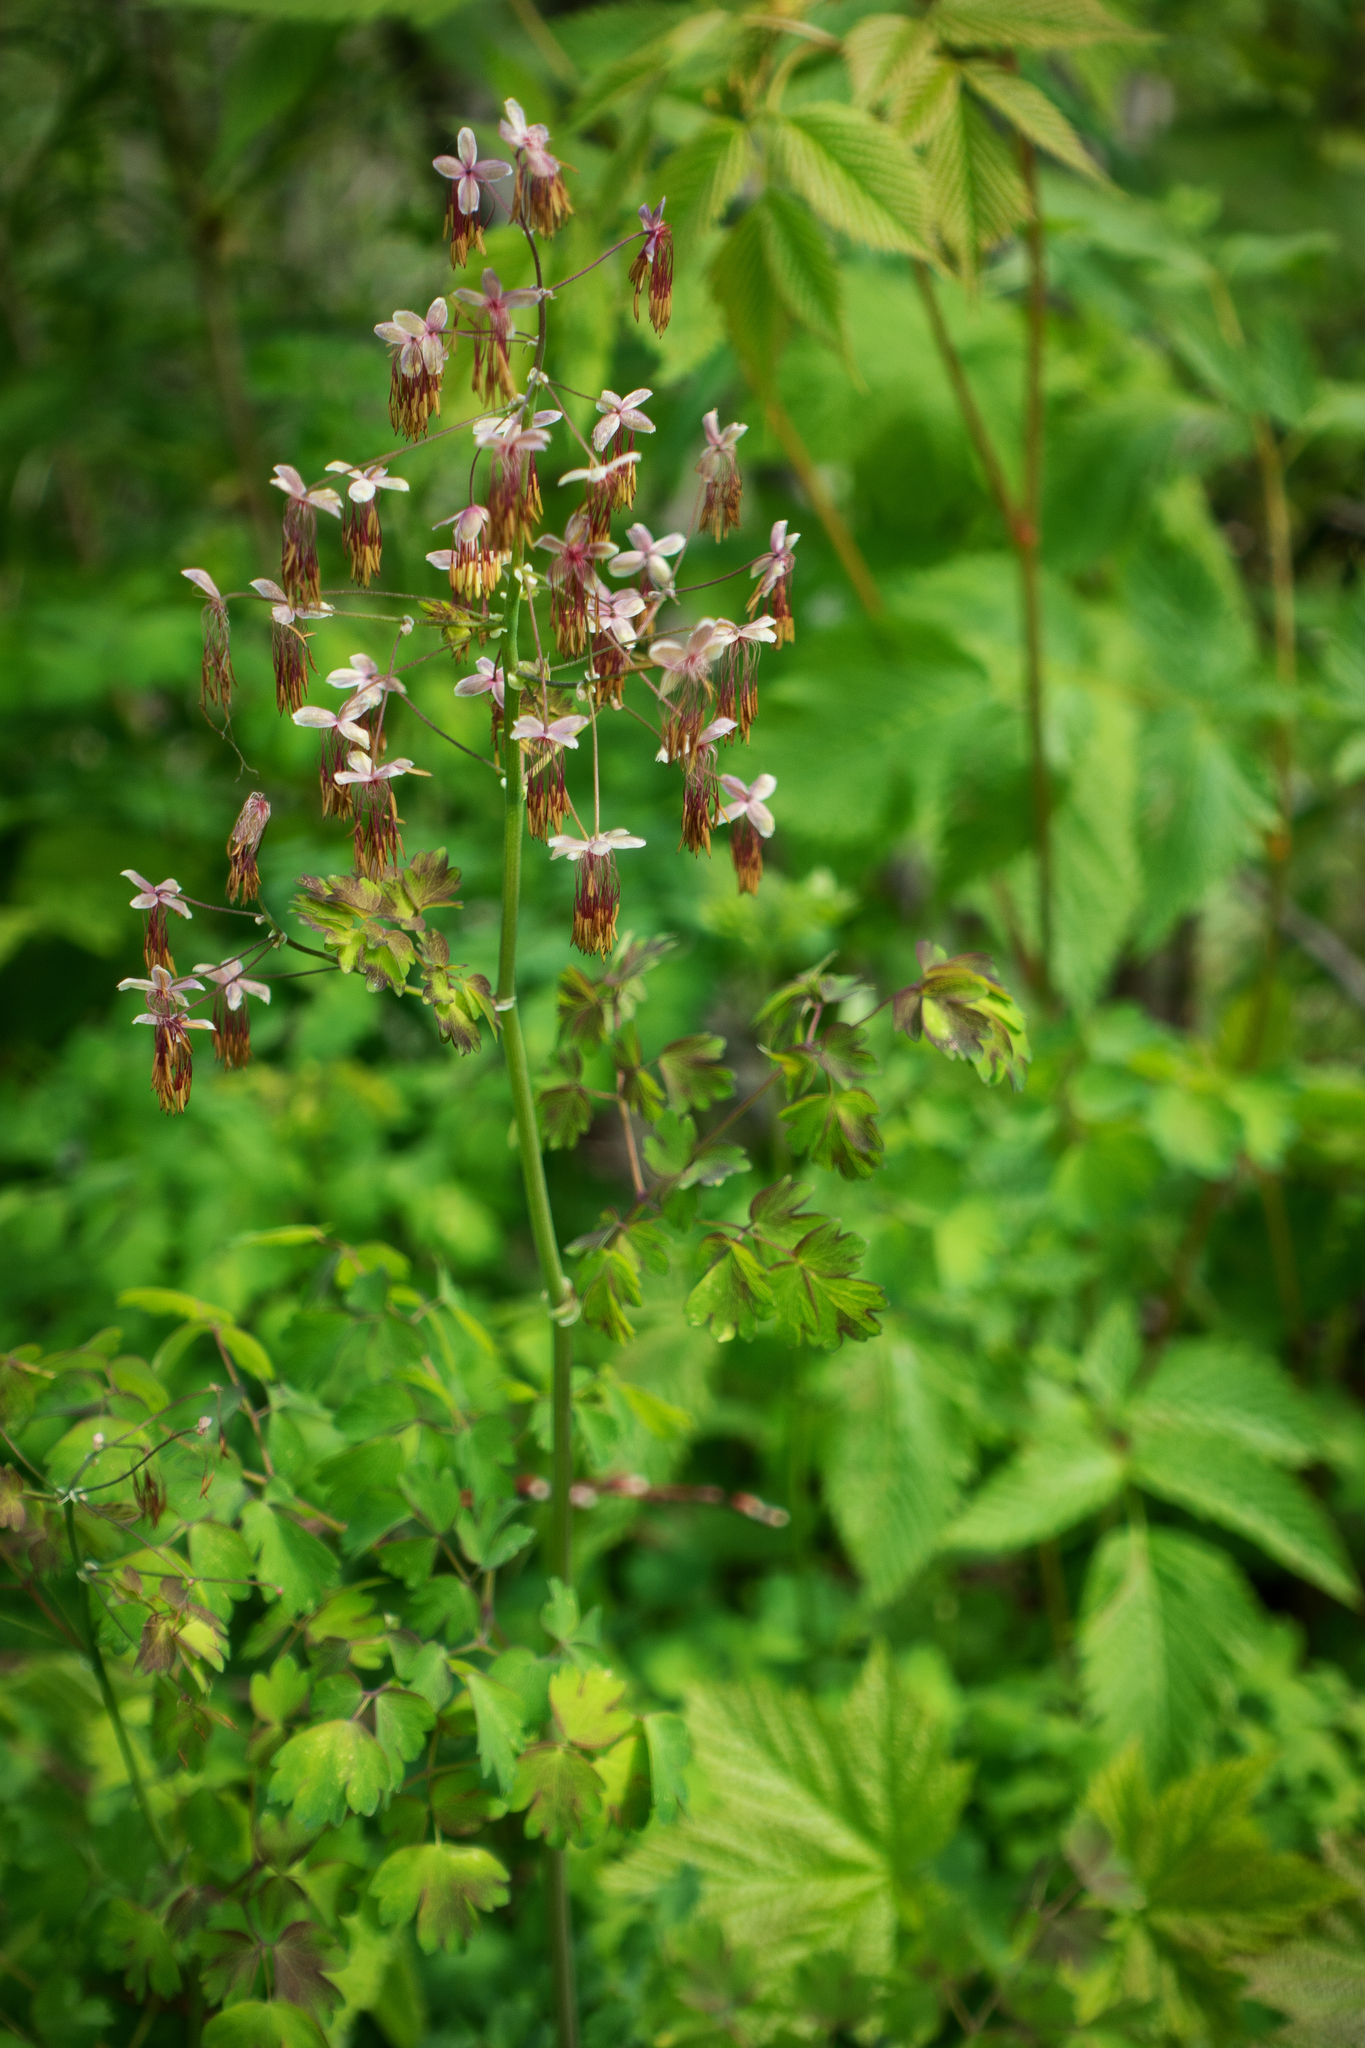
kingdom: Plantae
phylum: Tracheophyta
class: Magnoliopsida
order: Ranunculales
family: Ranunculaceae
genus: Thalictrum
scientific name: Thalictrum occidentale
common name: Western meadow-rue
